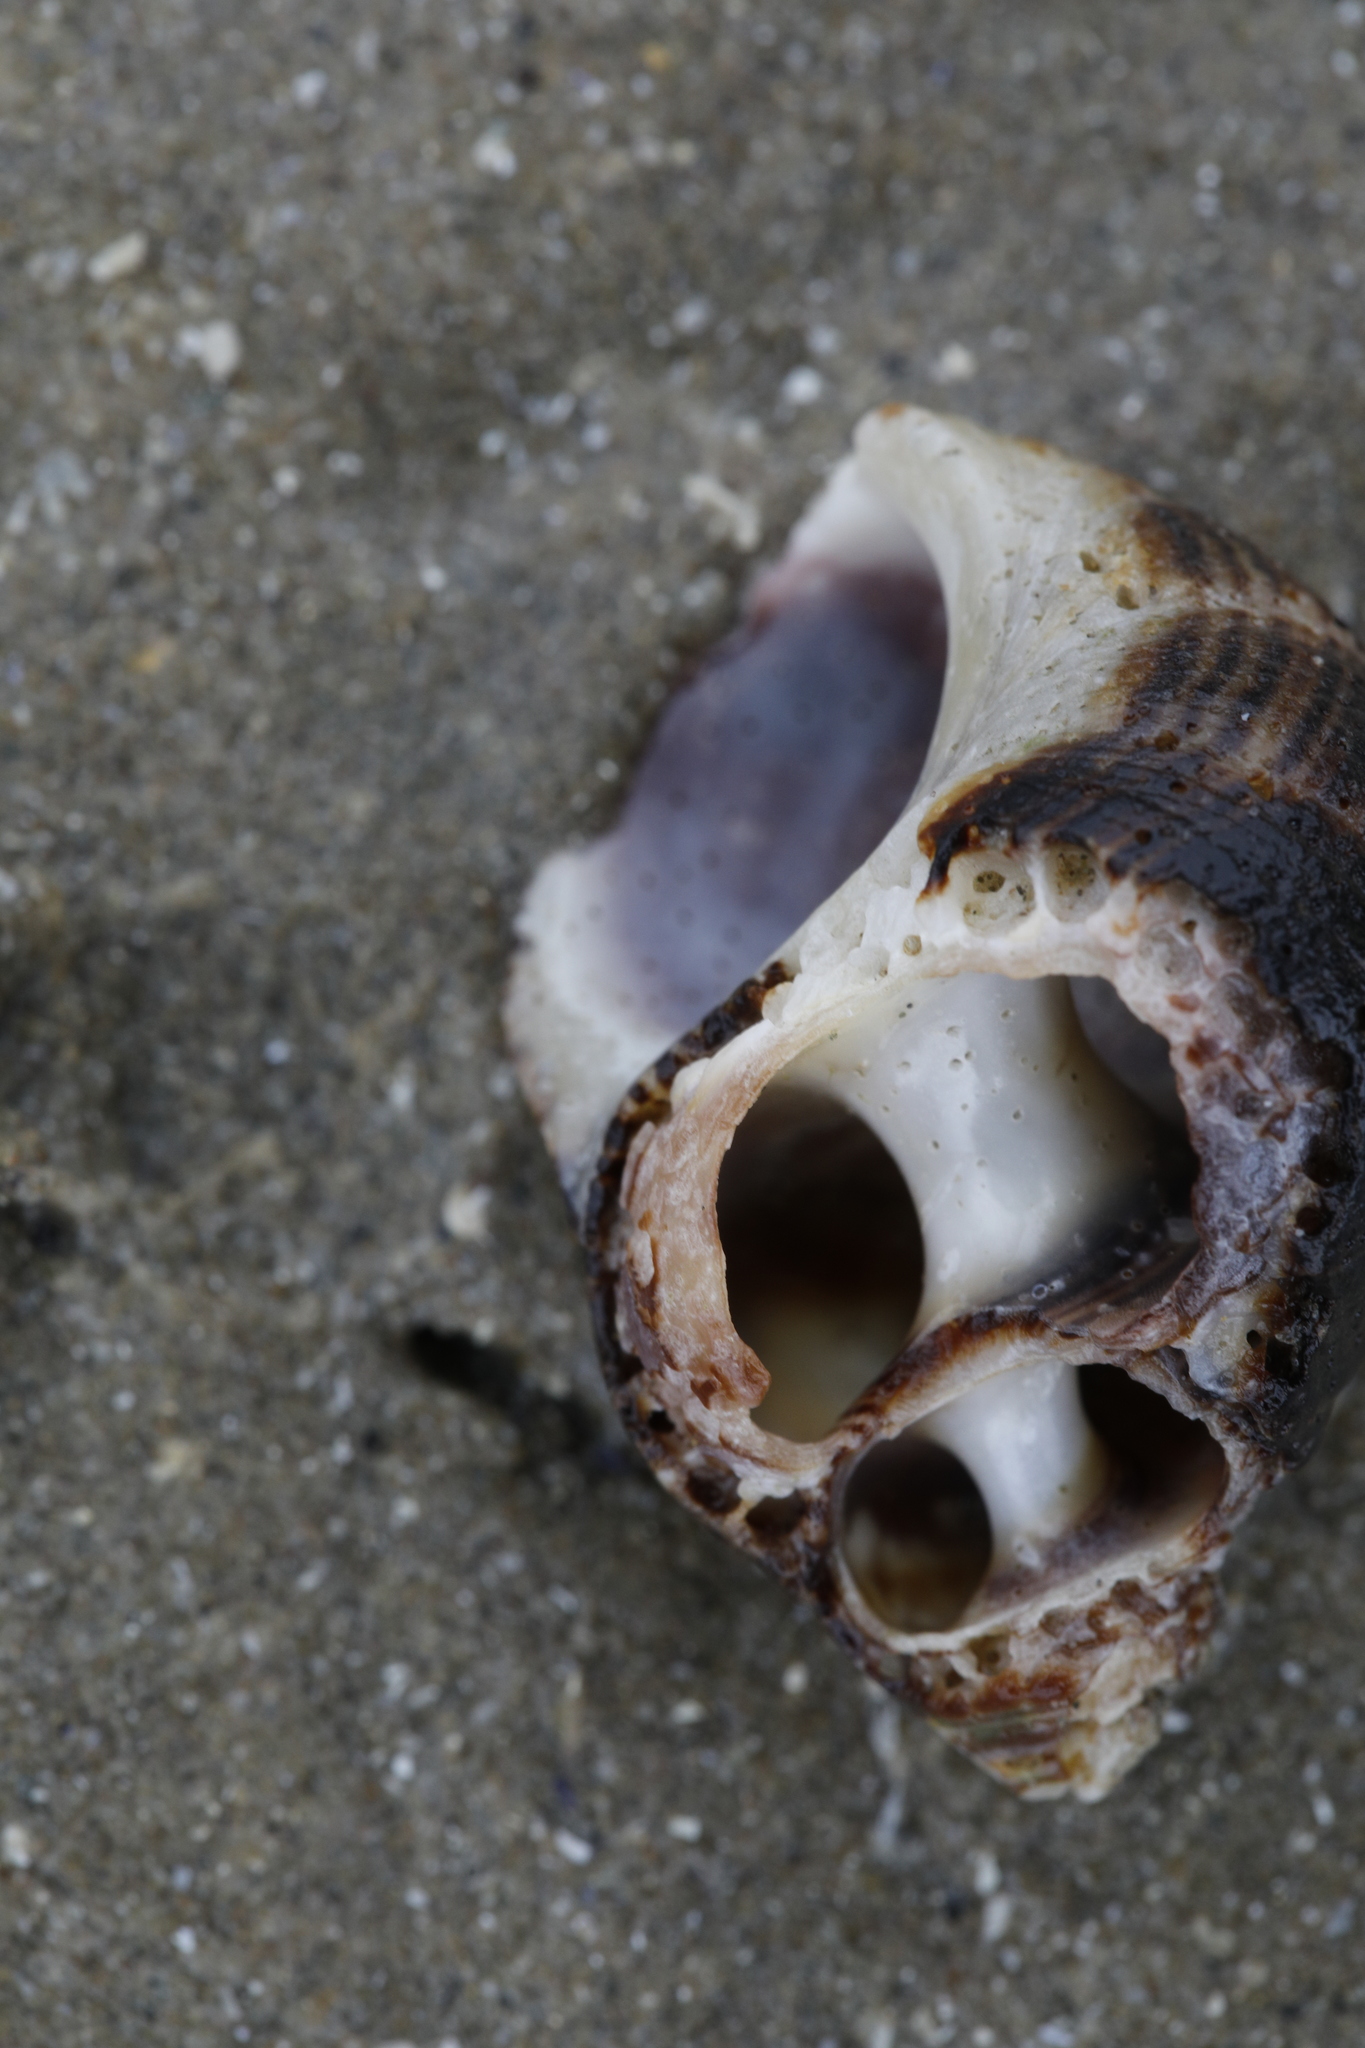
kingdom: Animalia
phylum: Mollusca
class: Gastropoda
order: Littorinimorpha
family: Littorinidae
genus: Littorina
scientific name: Littorina littorea
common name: Common periwinkle
